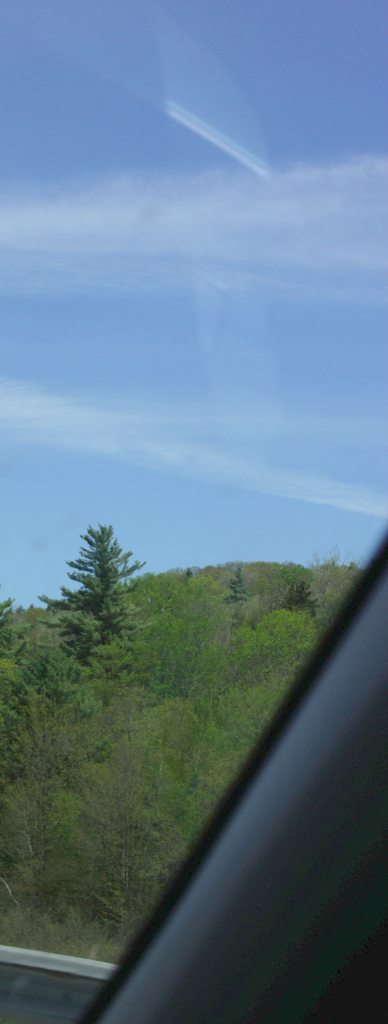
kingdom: Plantae
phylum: Tracheophyta
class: Pinopsida
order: Pinales
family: Pinaceae
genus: Pinus
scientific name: Pinus strobus
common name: Weymouth pine
